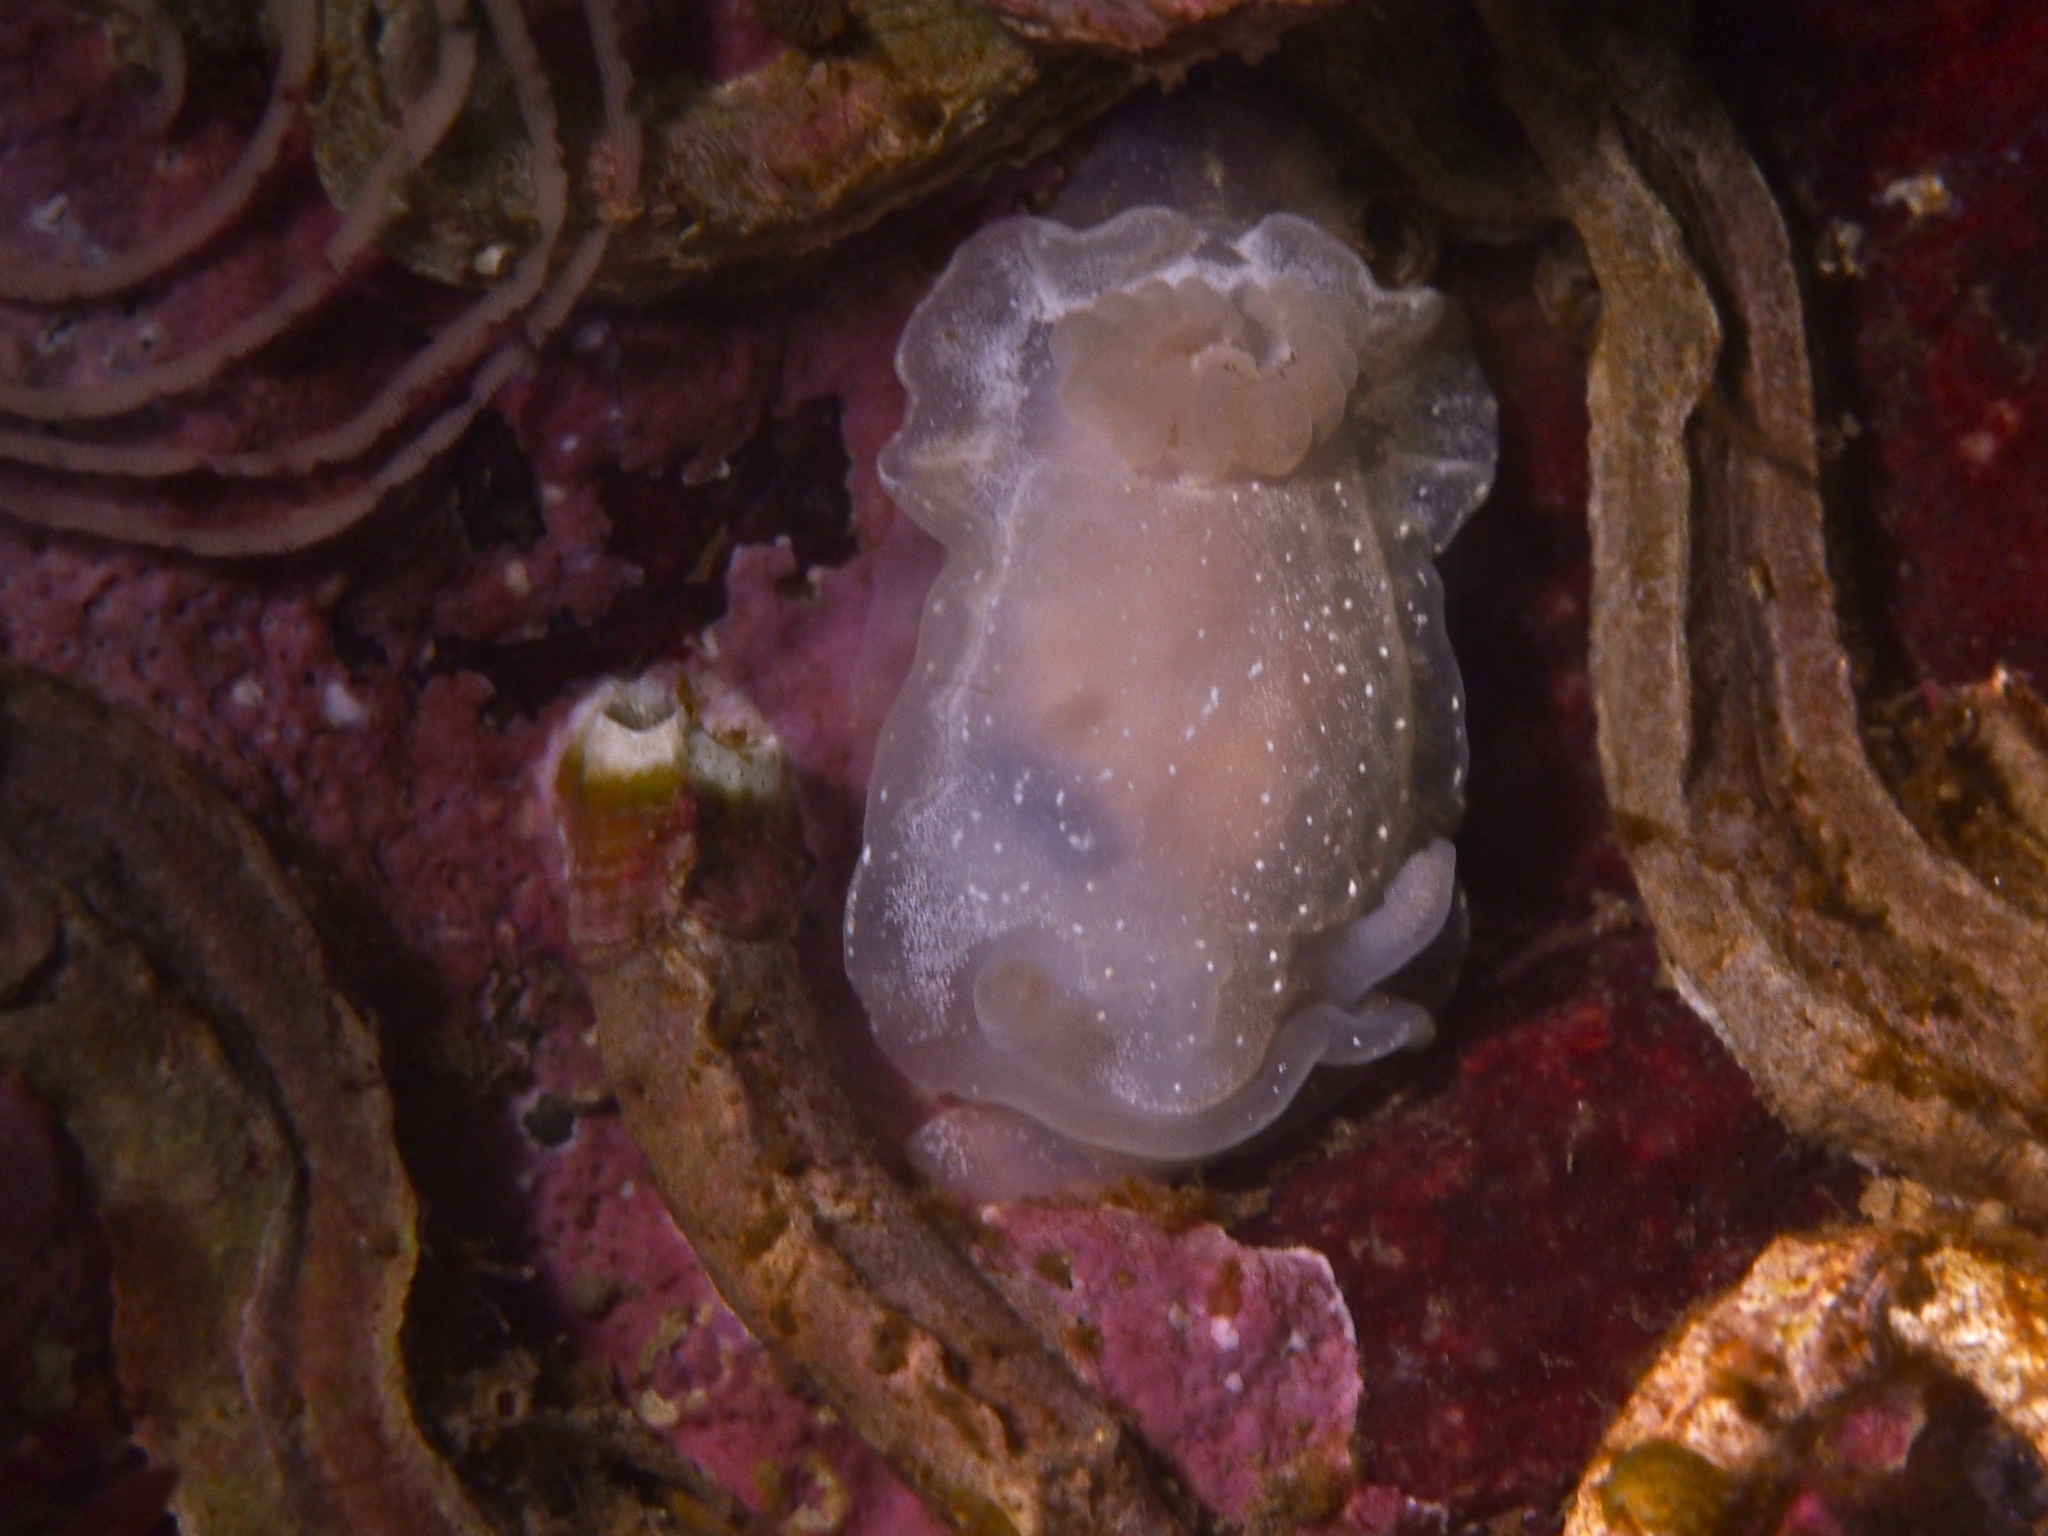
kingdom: Animalia
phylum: Mollusca
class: Gastropoda
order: Nudibranchia
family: Goniodorididae
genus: Okenia
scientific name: Okenia
